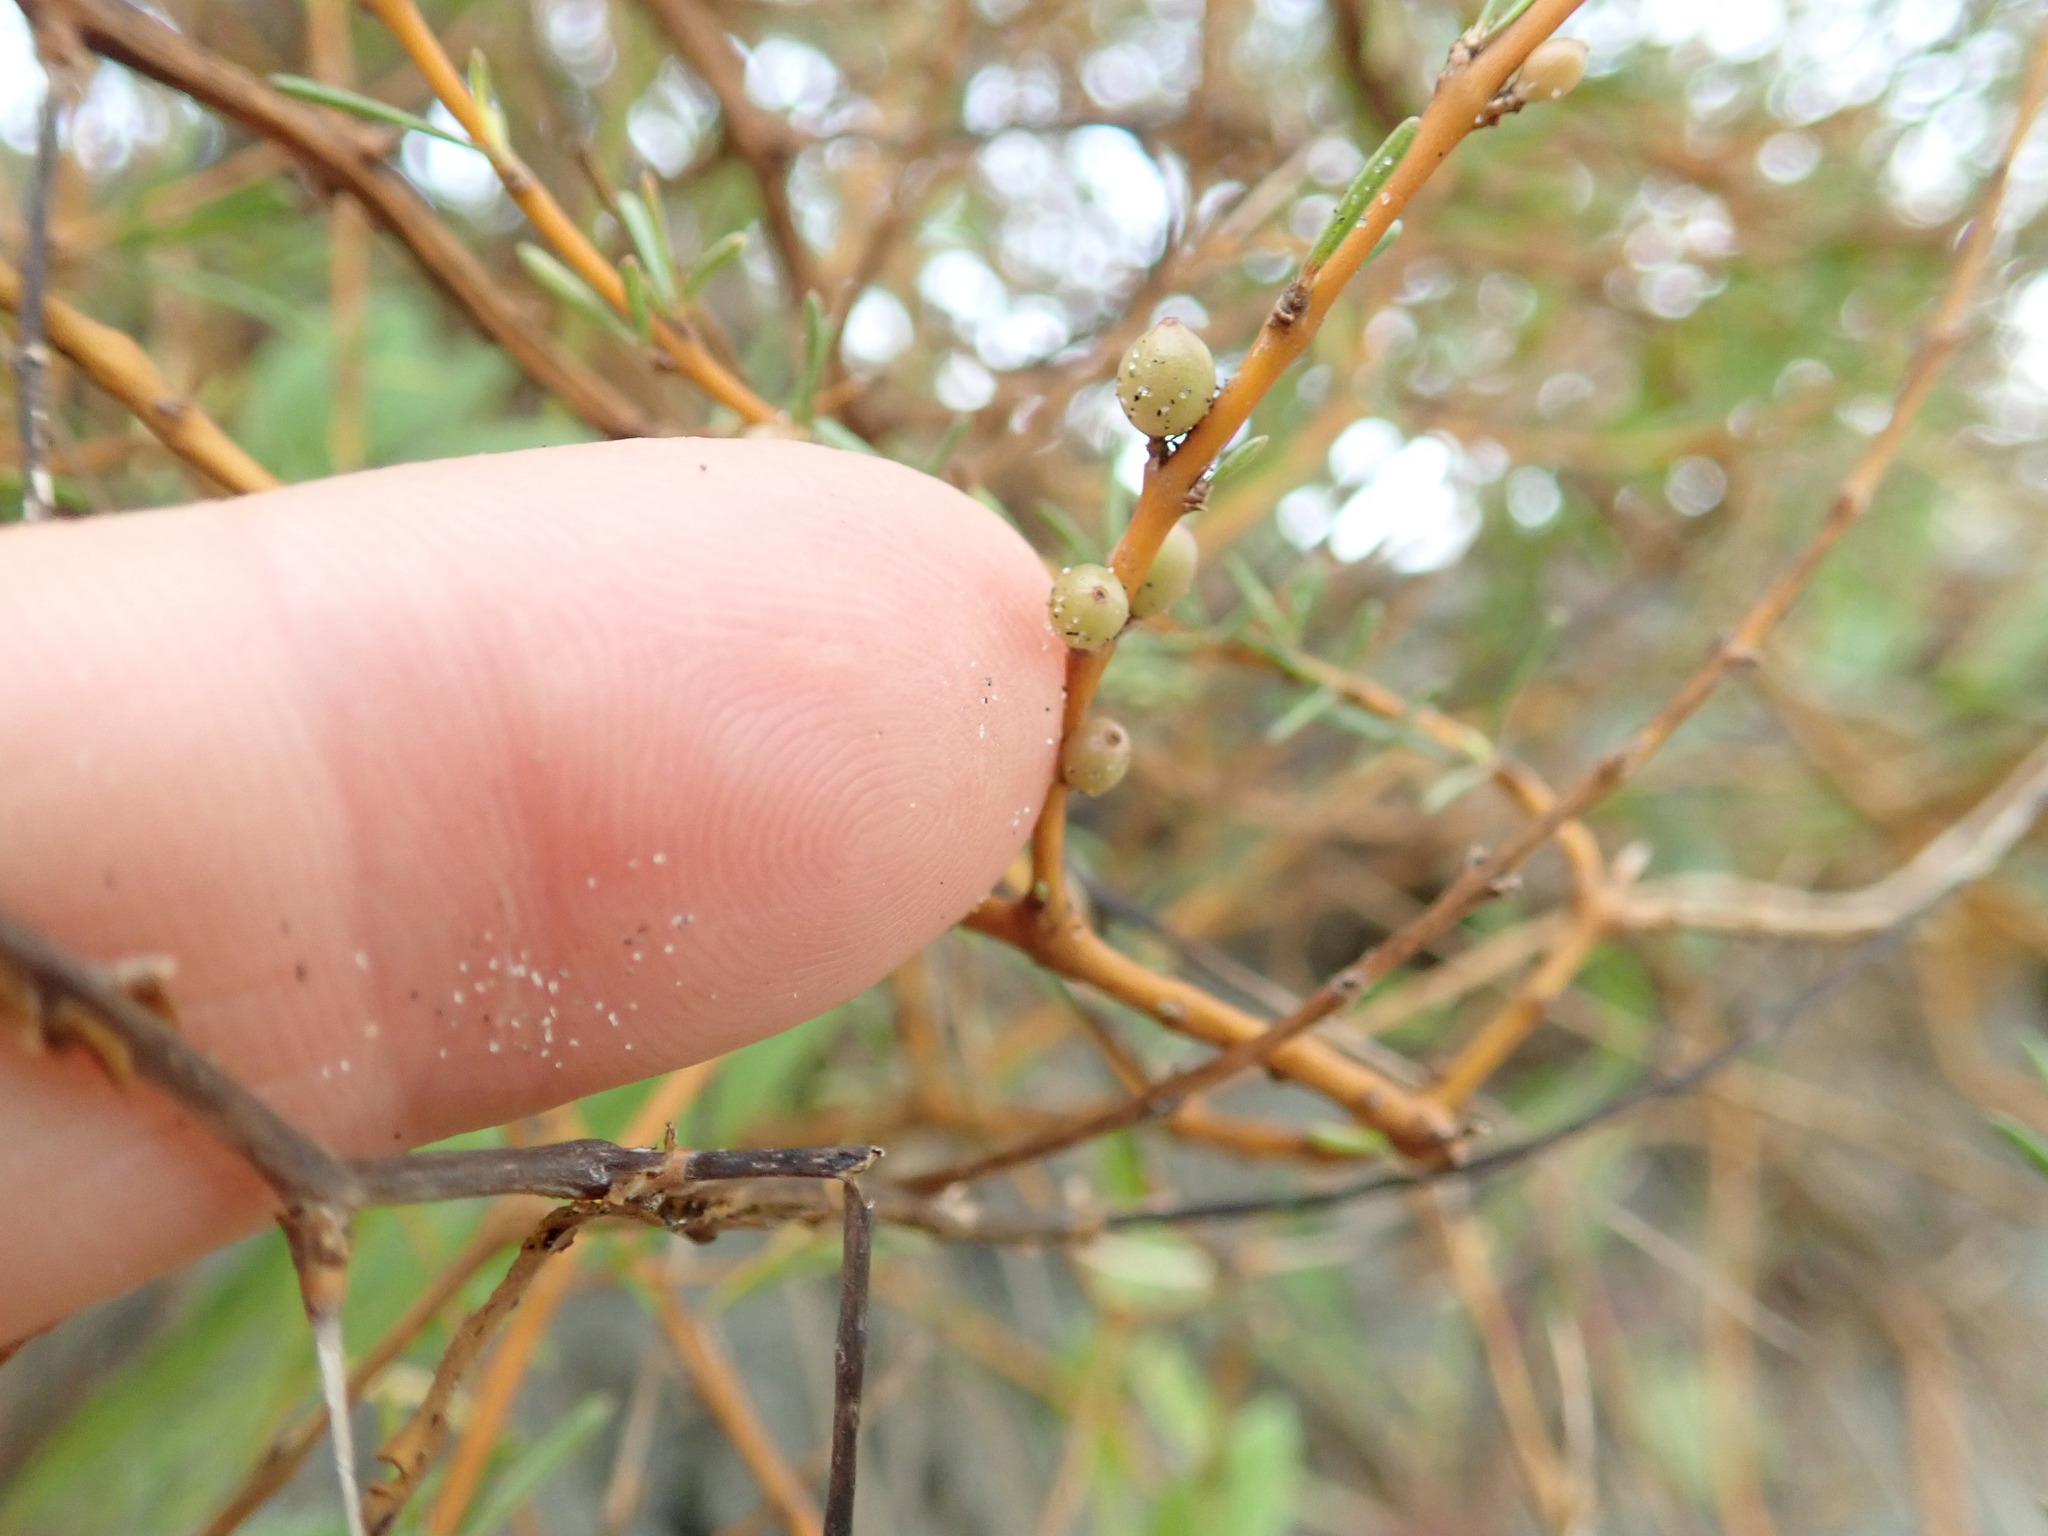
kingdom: Plantae
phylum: Tracheophyta
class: Magnoliopsida
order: Gentianales
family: Rubiaceae
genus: Coprosma
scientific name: Coprosma acerosa
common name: Sand coprosma
